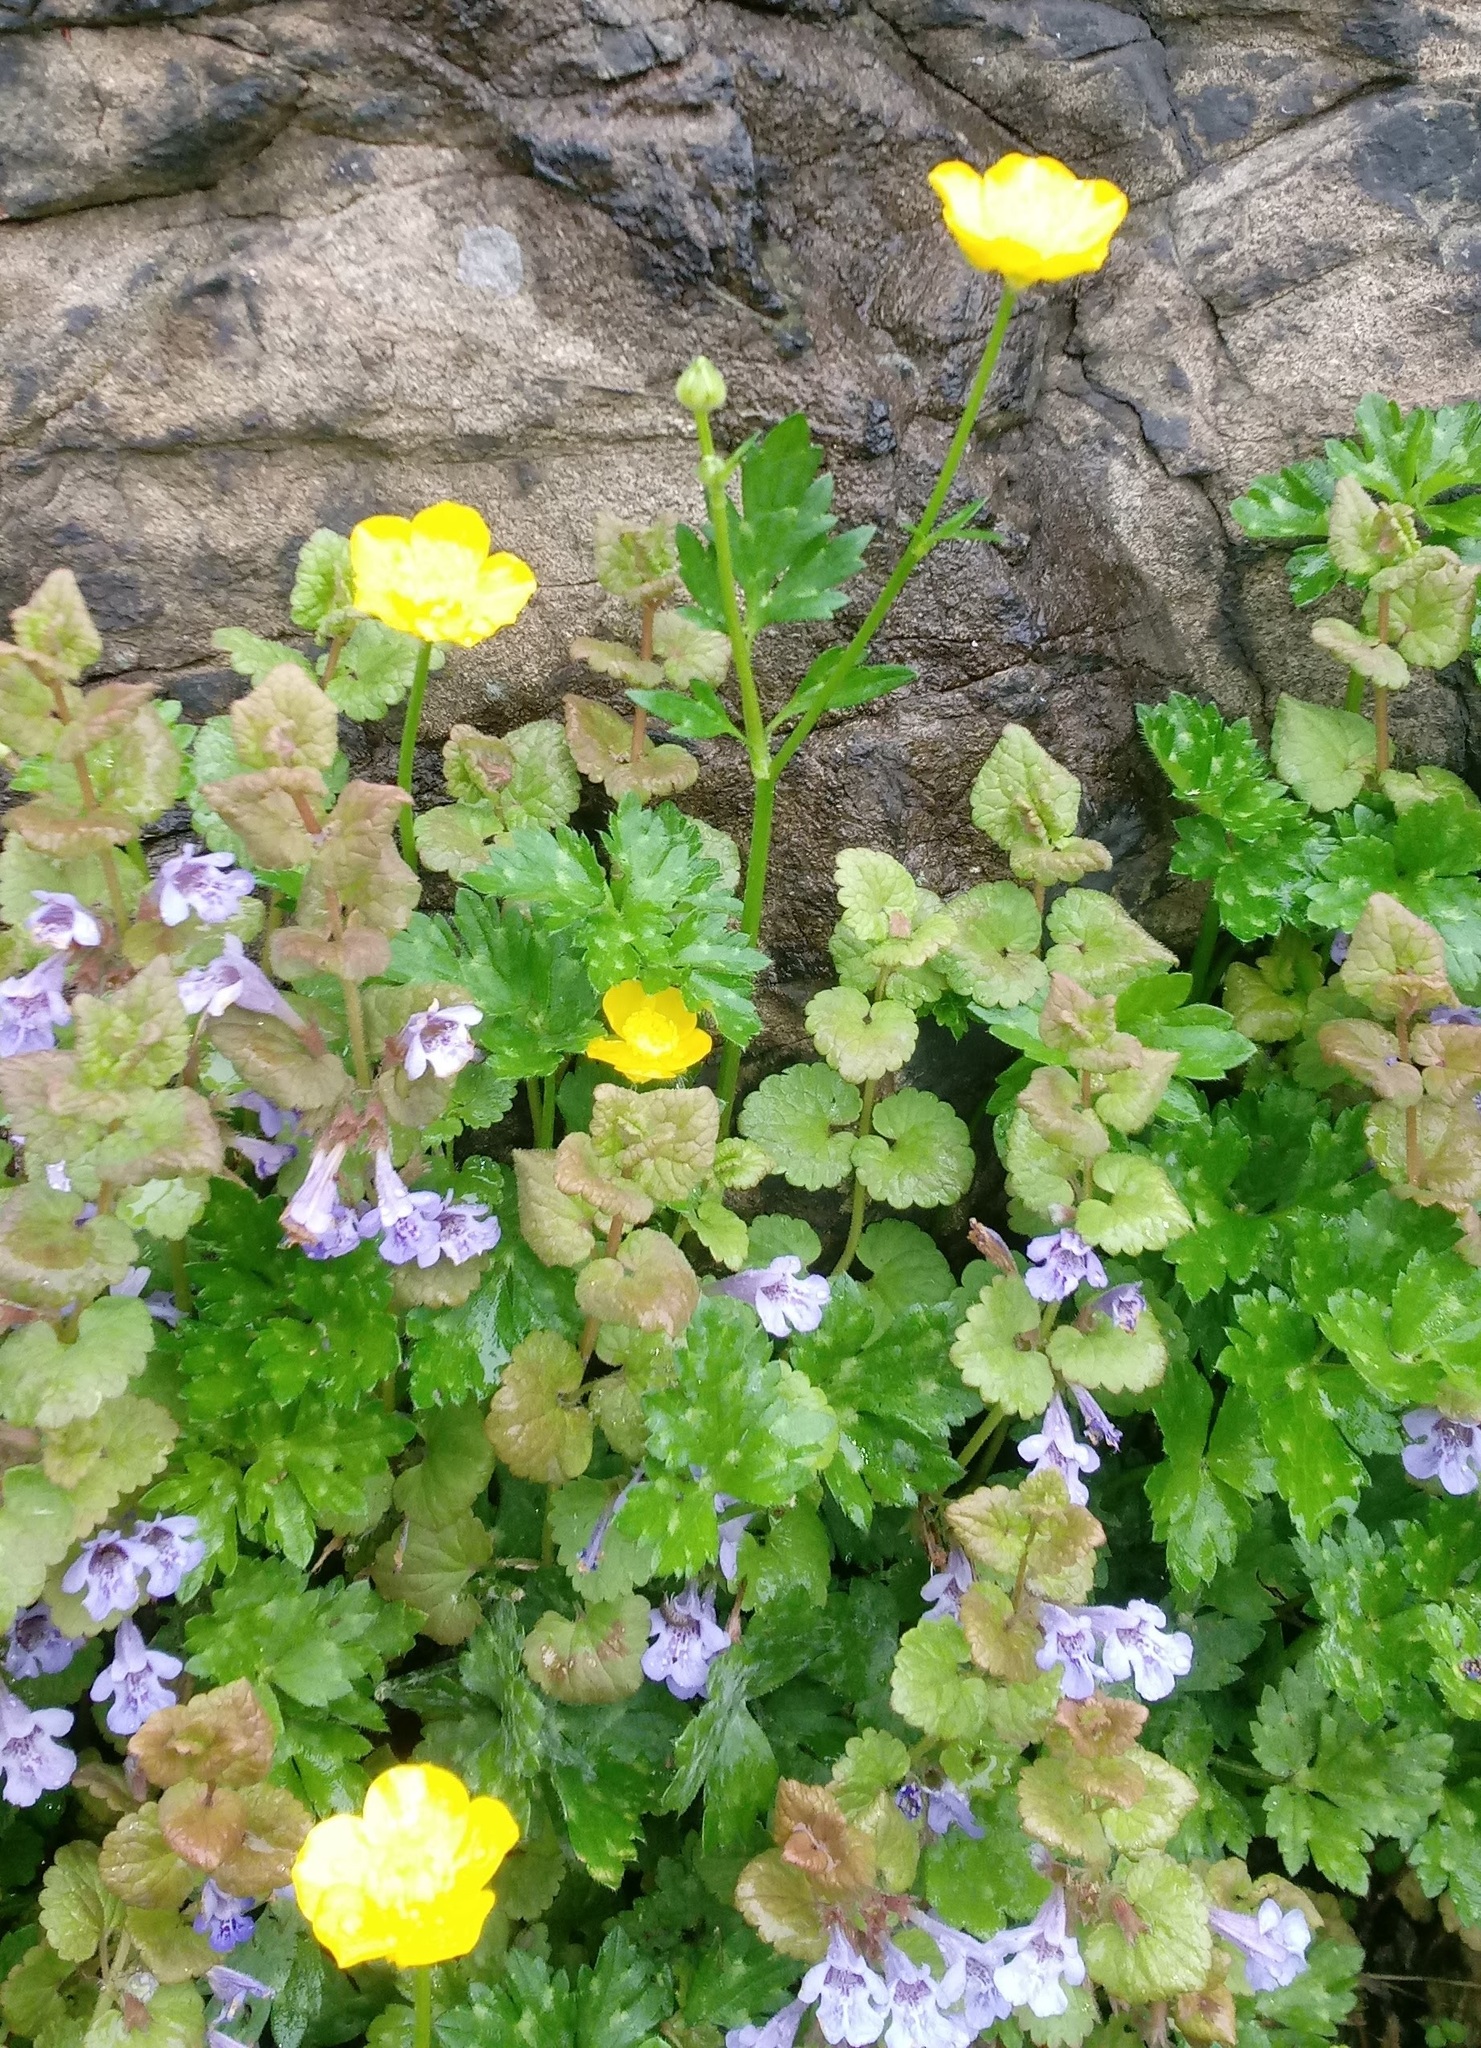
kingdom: Plantae
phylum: Tracheophyta
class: Magnoliopsida
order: Lamiales
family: Lamiaceae
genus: Glechoma
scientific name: Glechoma hederacea
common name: Ground ivy
